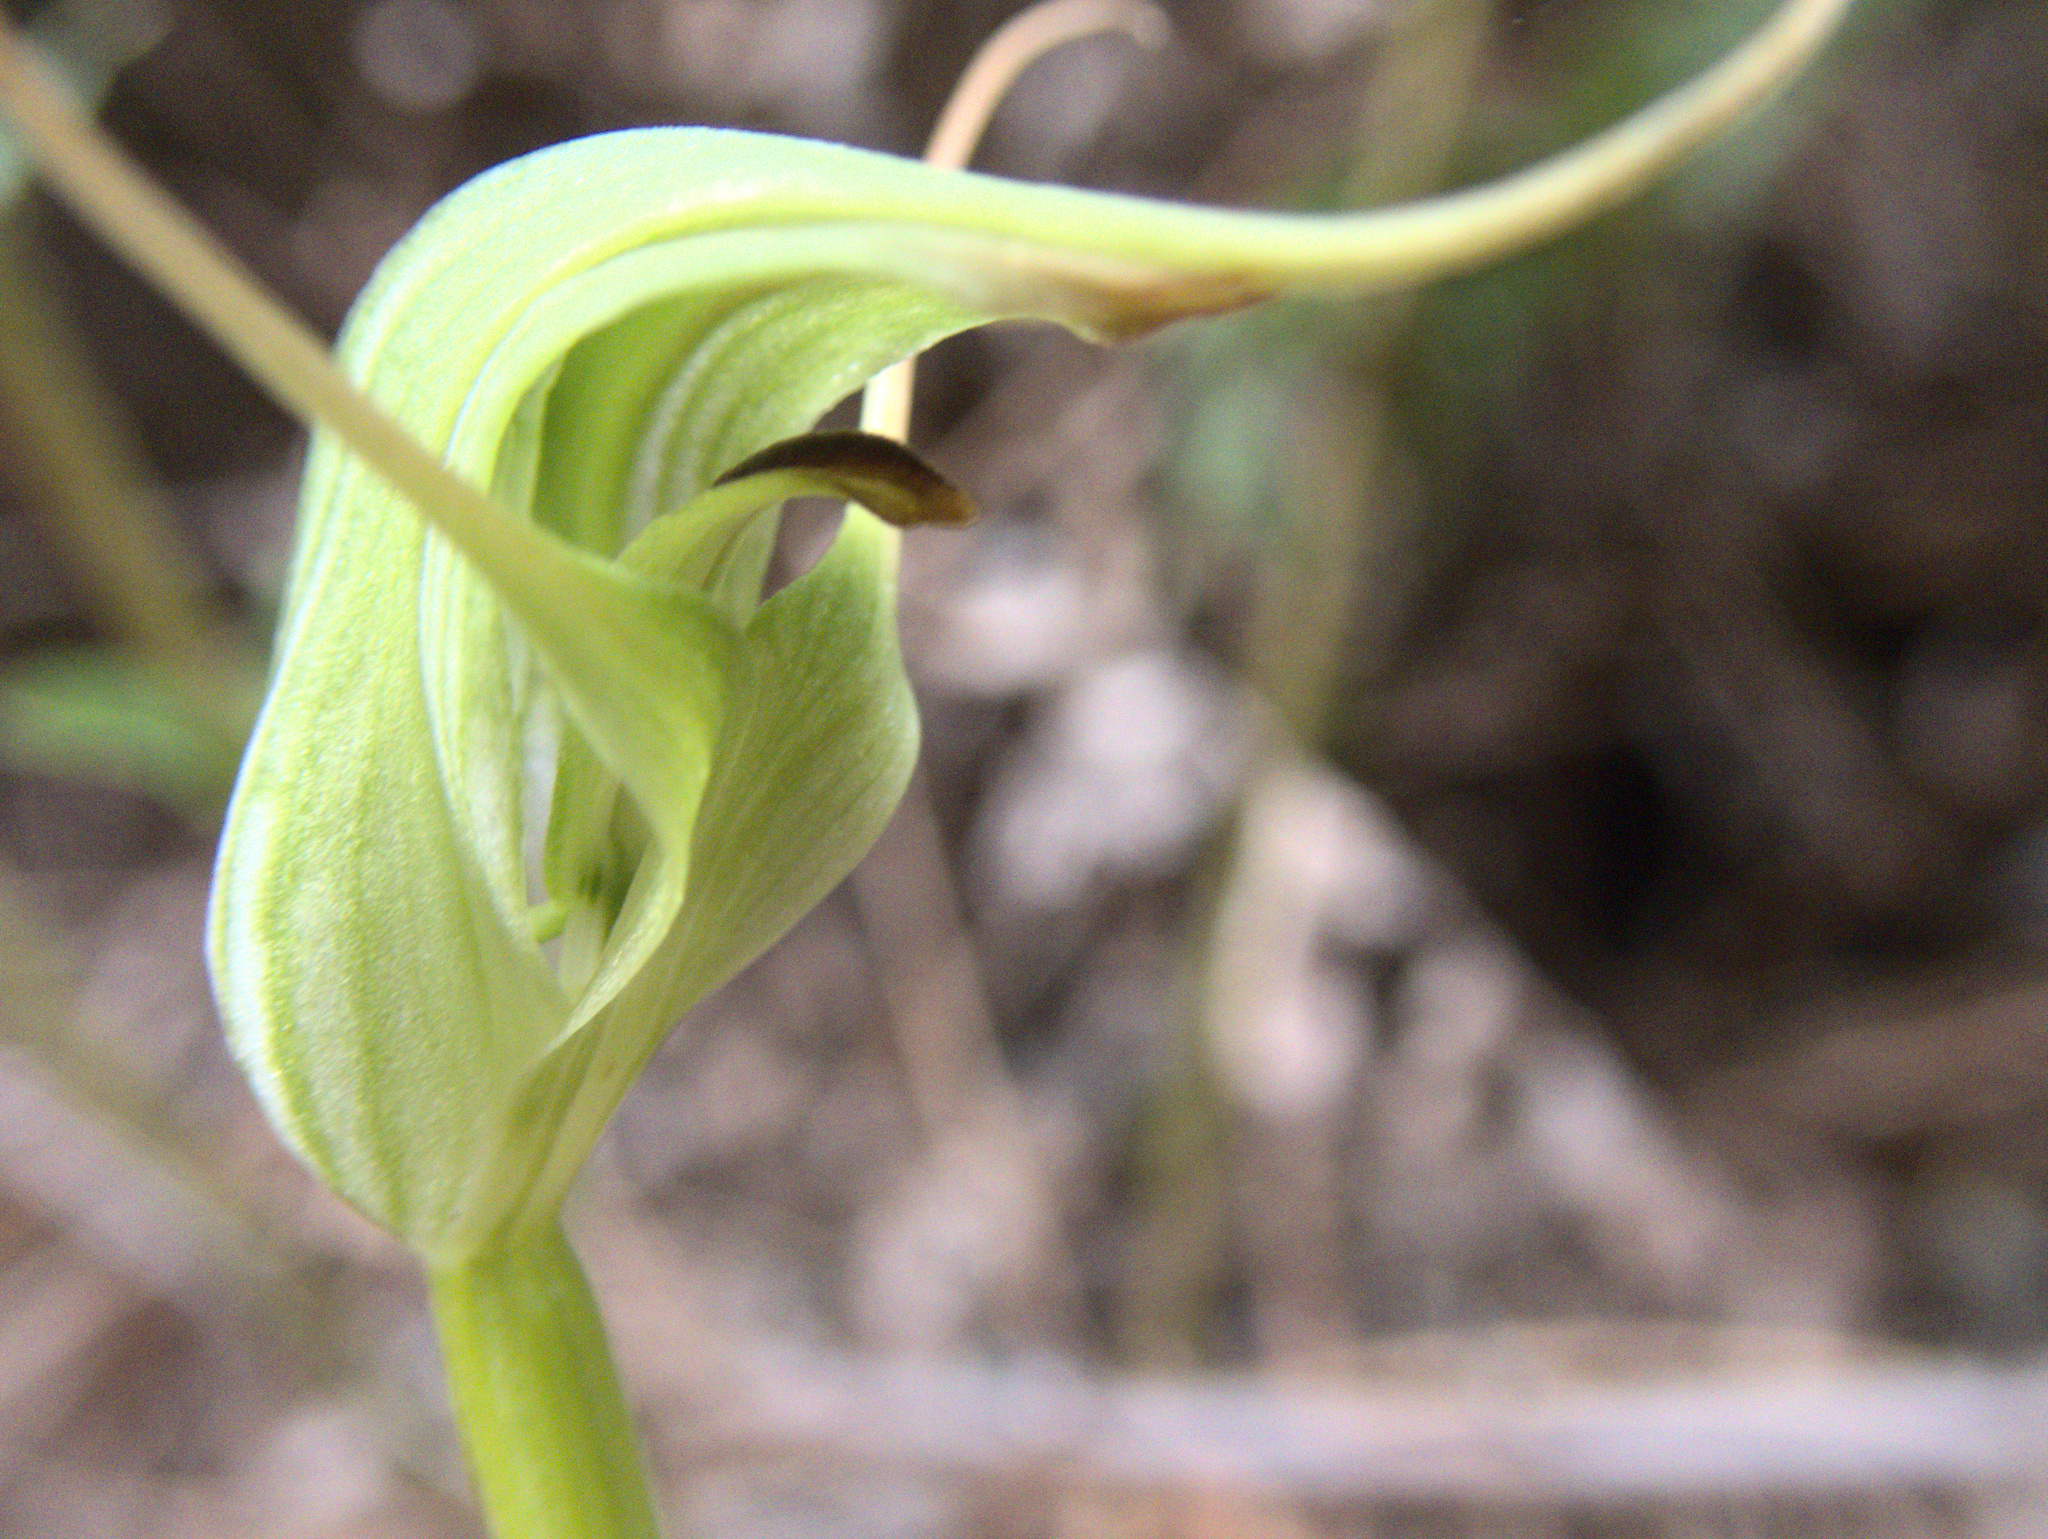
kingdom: Plantae
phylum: Tracheophyta
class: Liliopsida
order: Asparagales
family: Orchidaceae
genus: Pterostylis
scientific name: Pterostylis agathicola
